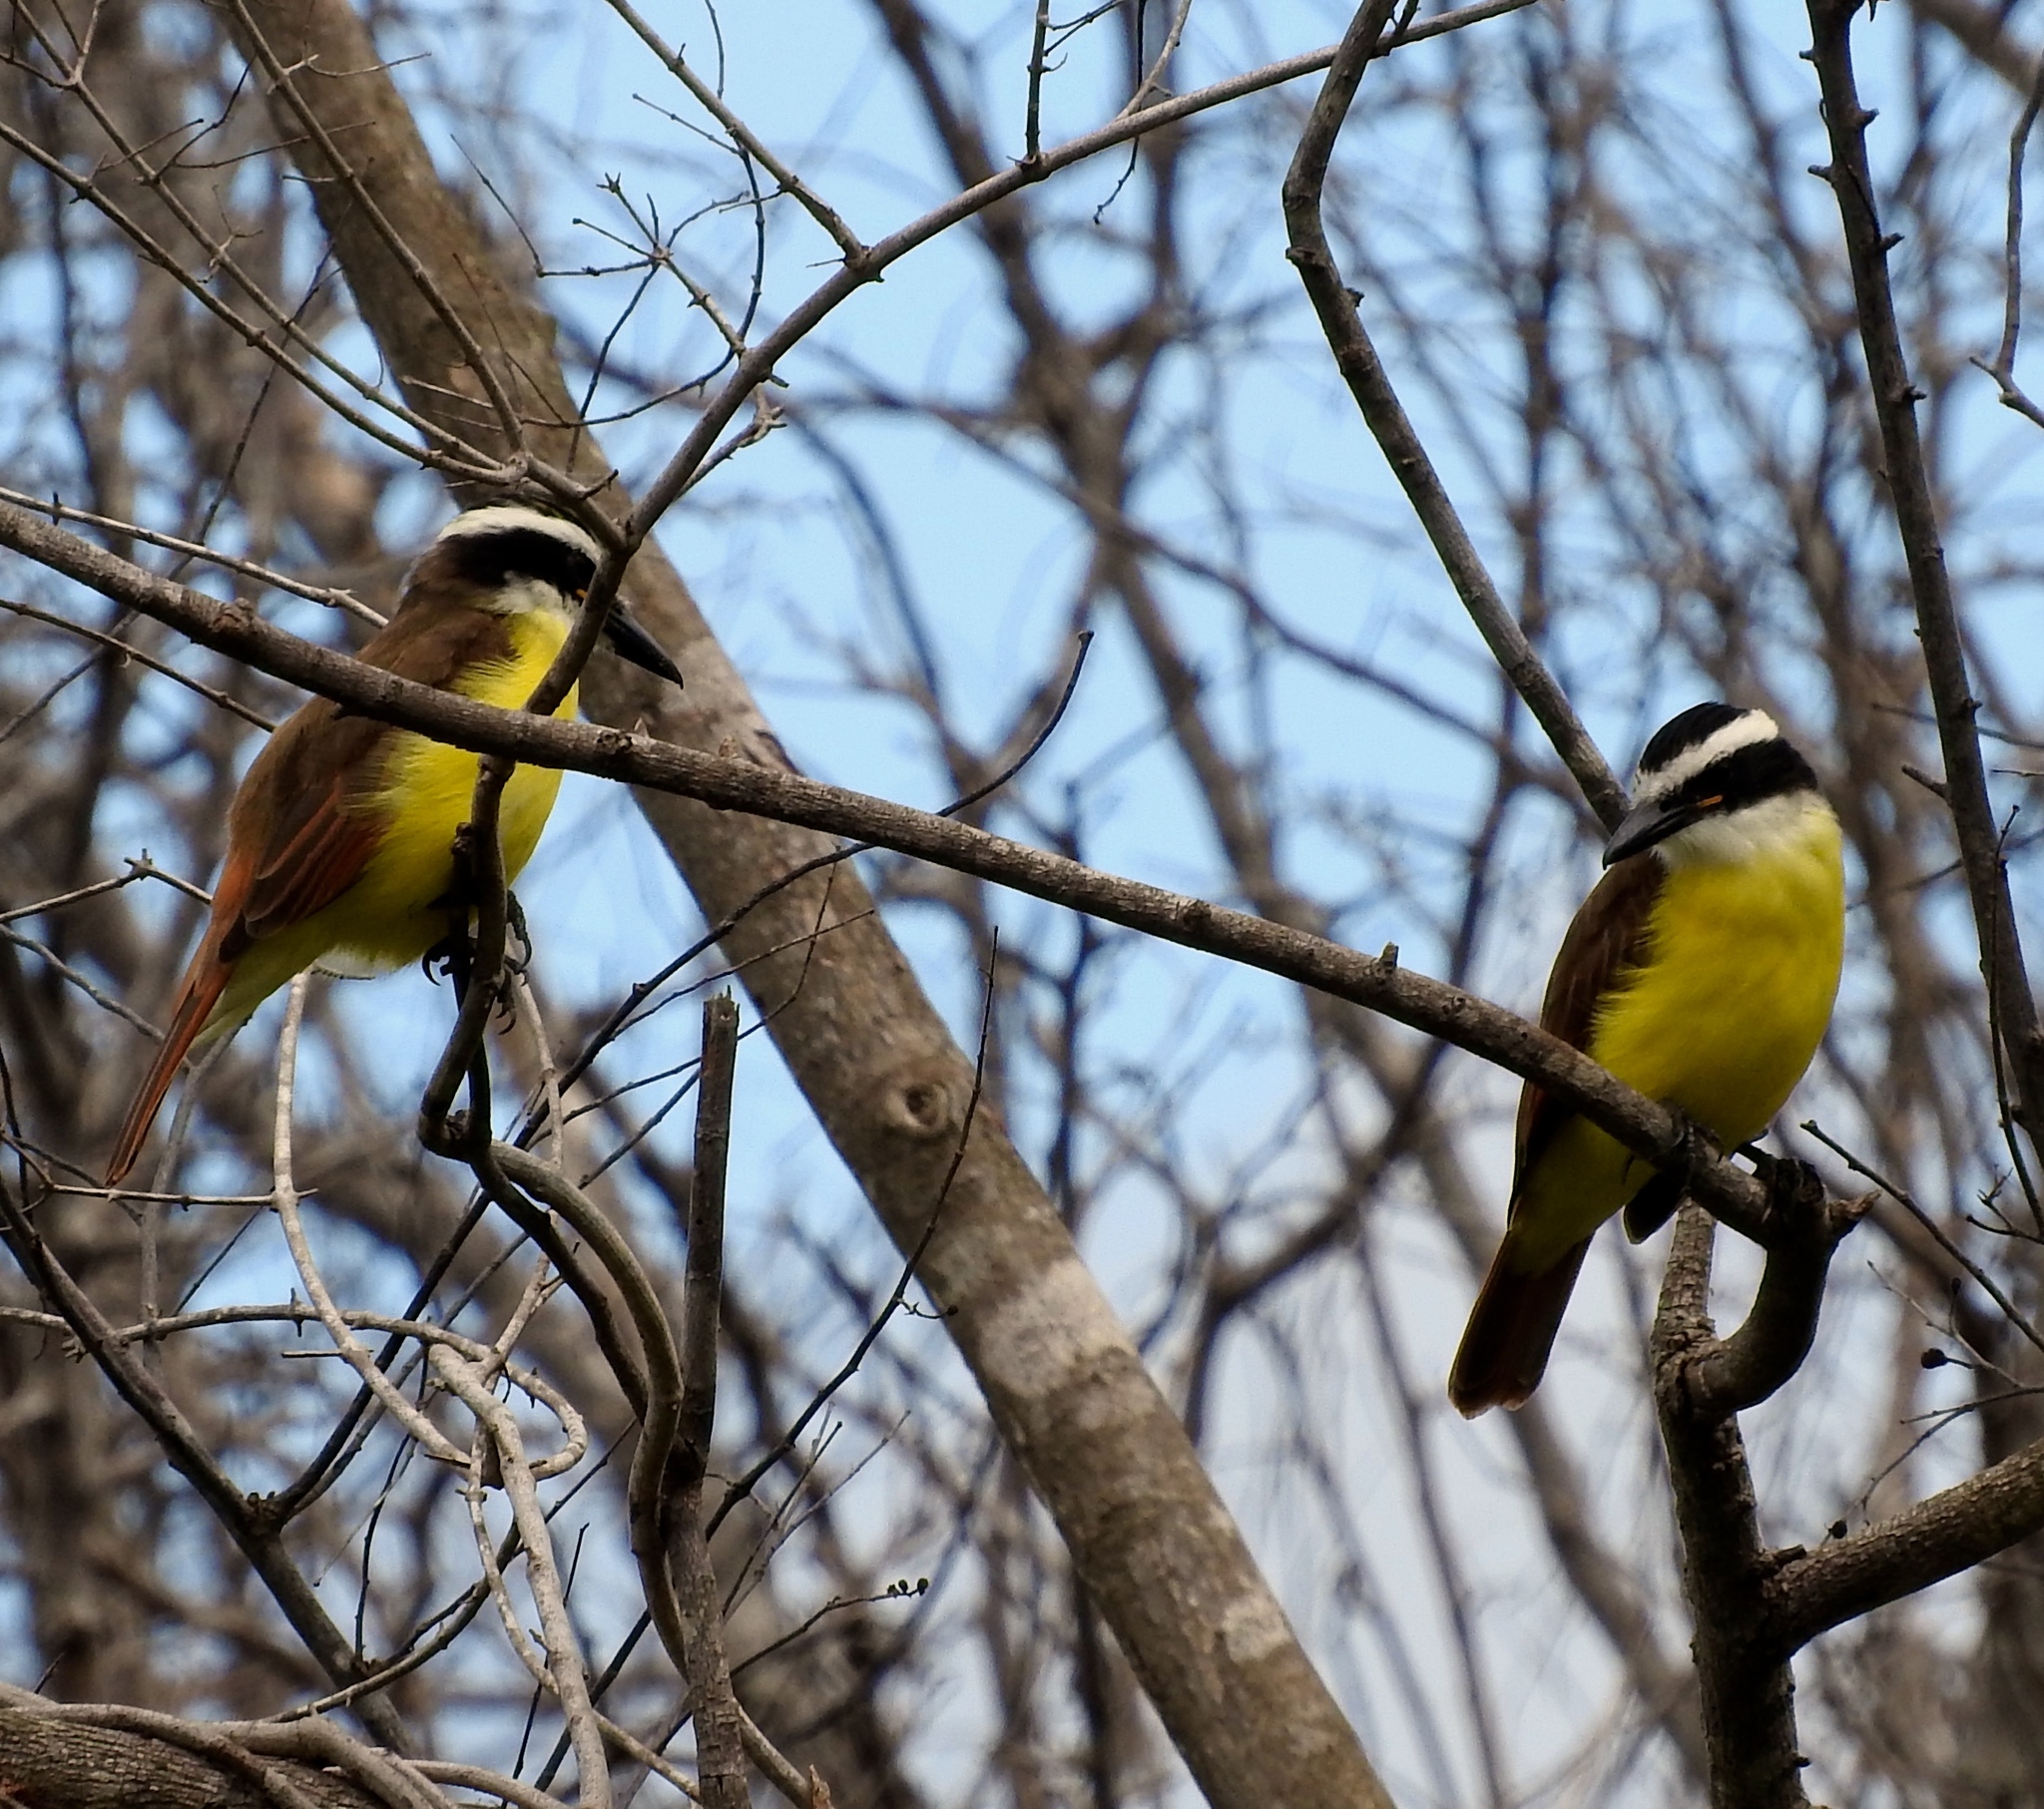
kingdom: Animalia
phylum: Chordata
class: Aves
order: Passeriformes
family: Tyrannidae
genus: Pitangus
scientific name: Pitangus sulphuratus
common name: Great kiskadee
